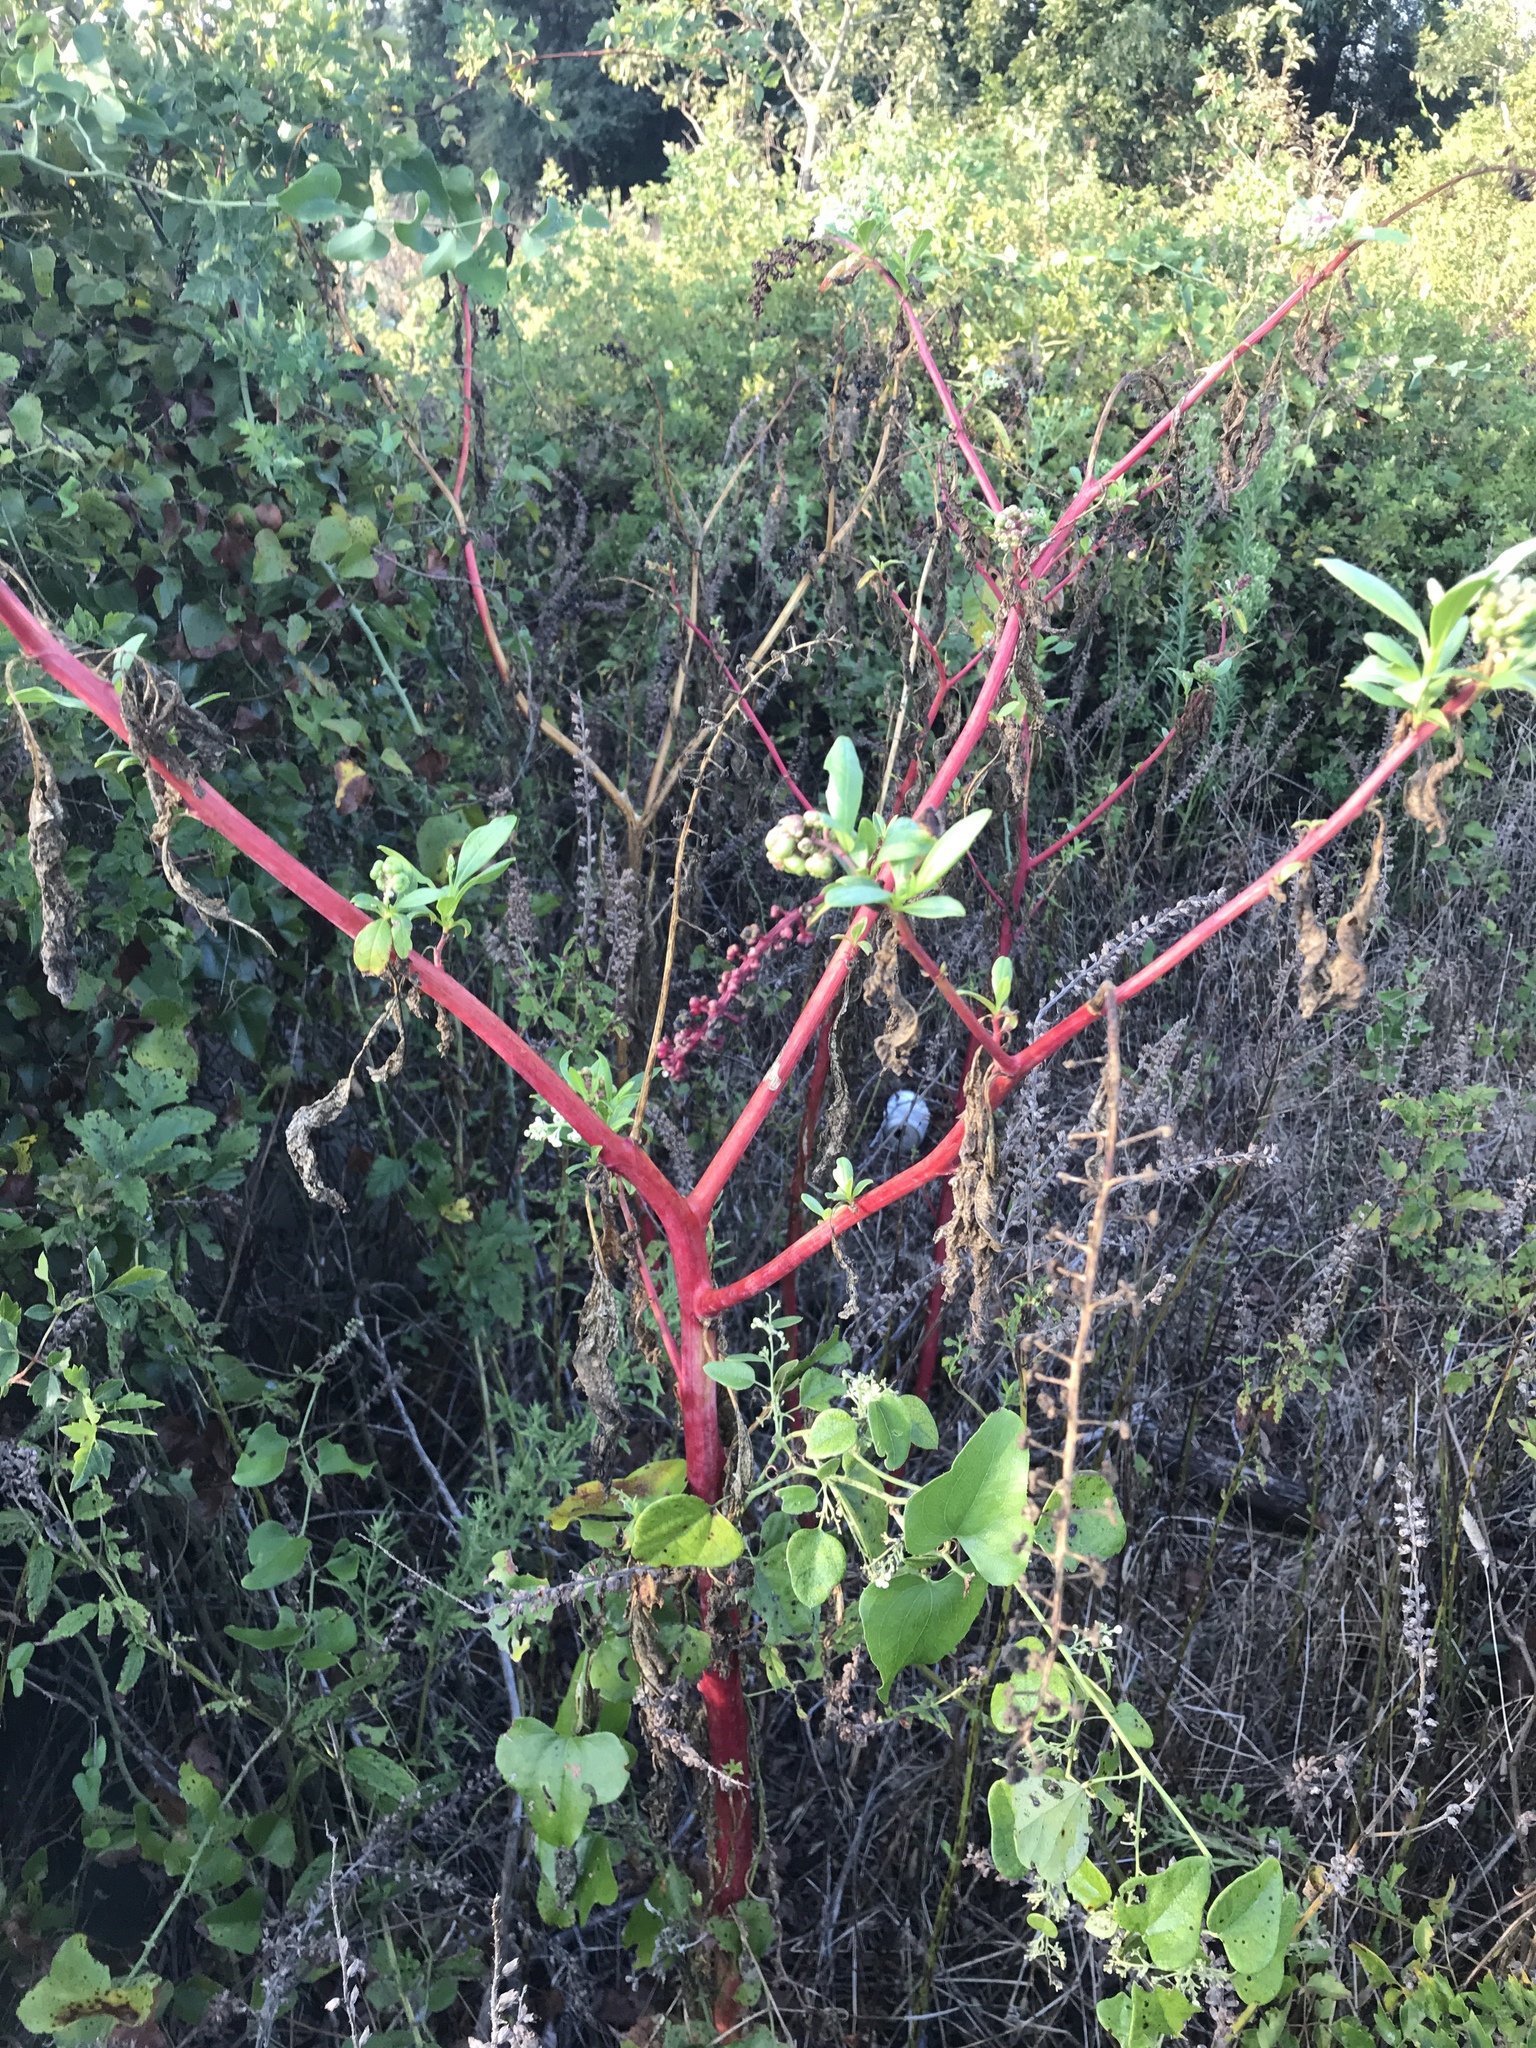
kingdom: Plantae
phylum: Tracheophyta
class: Magnoliopsida
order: Caryophyllales
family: Phytolaccaceae
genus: Phytolacca
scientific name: Phytolacca americana
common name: American pokeweed
